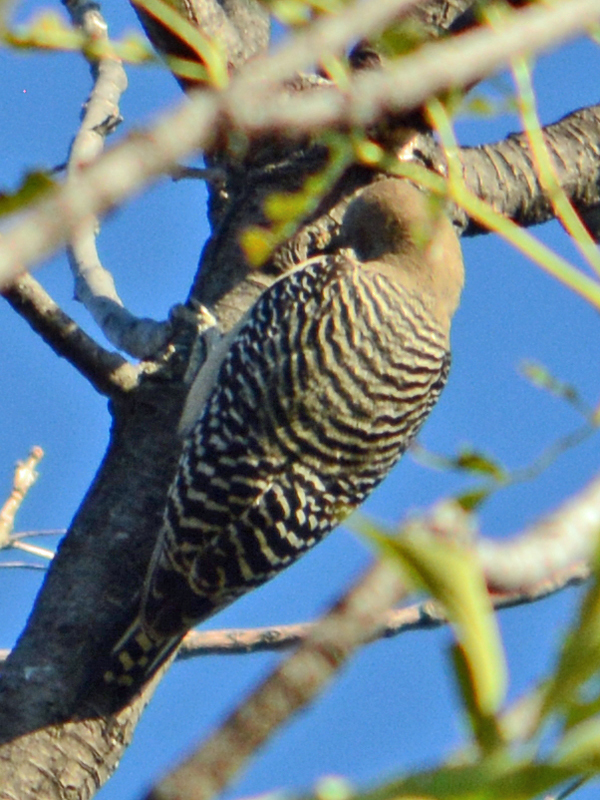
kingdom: Animalia
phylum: Chordata
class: Aves
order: Piciformes
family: Picidae
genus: Melanerpes
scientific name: Melanerpes uropygialis
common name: Gila woodpecker
